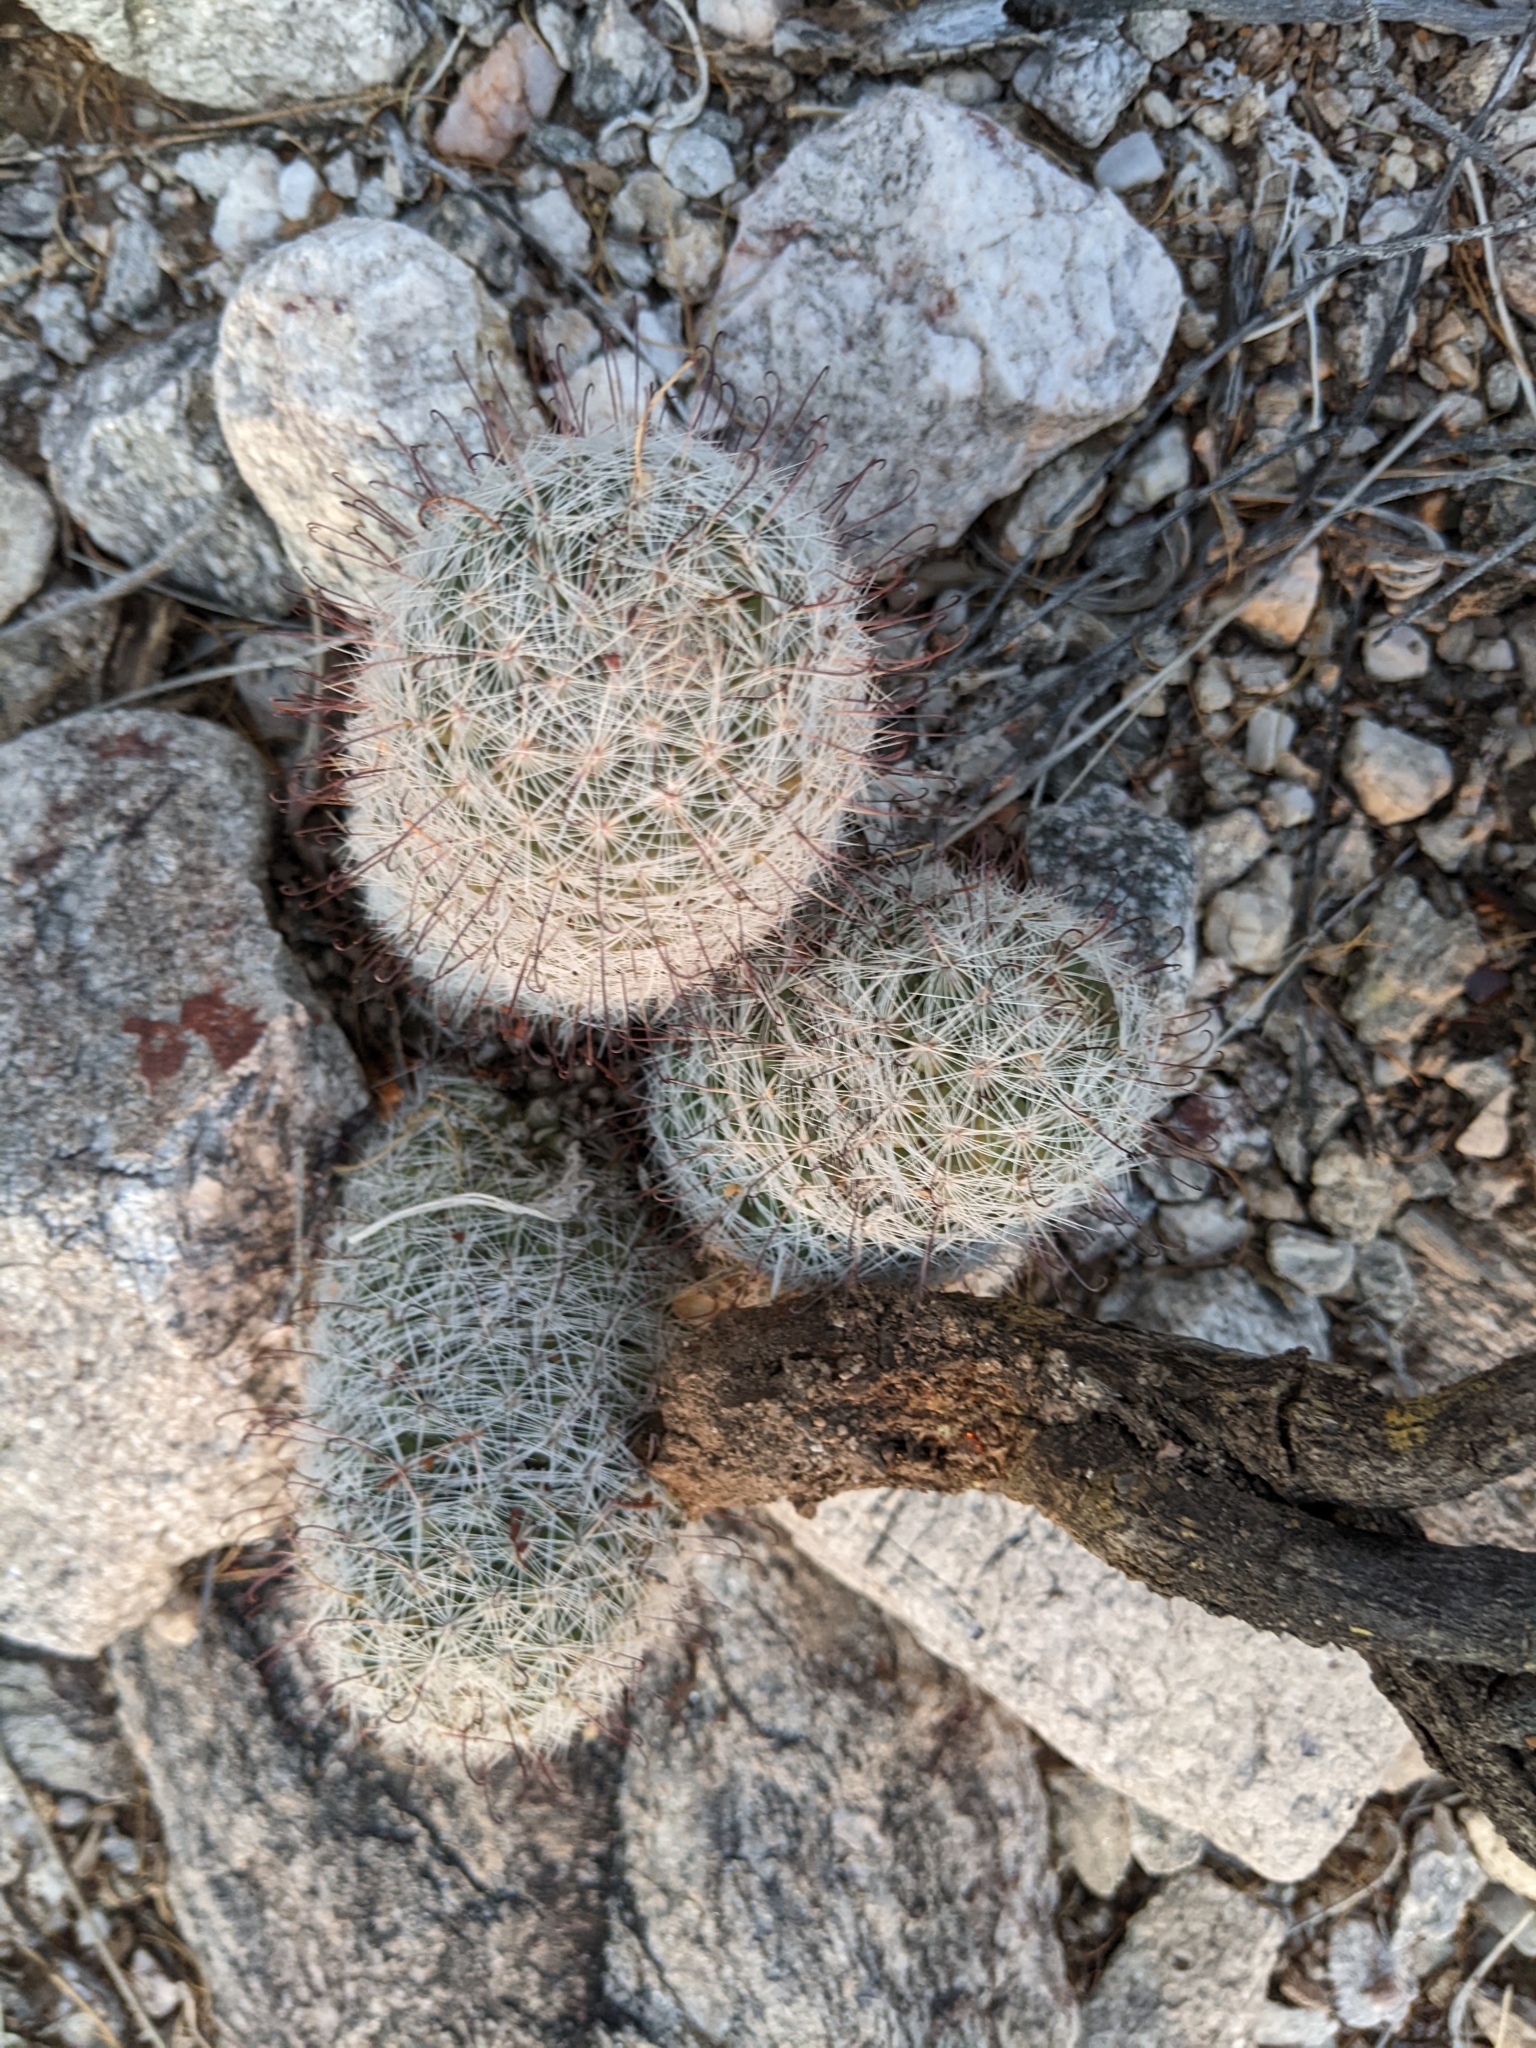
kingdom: Plantae
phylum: Tracheophyta
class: Magnoliopsida
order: Caryophyllales
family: Cactaceae
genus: Cochemiea
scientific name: Cochemiea grahamii
